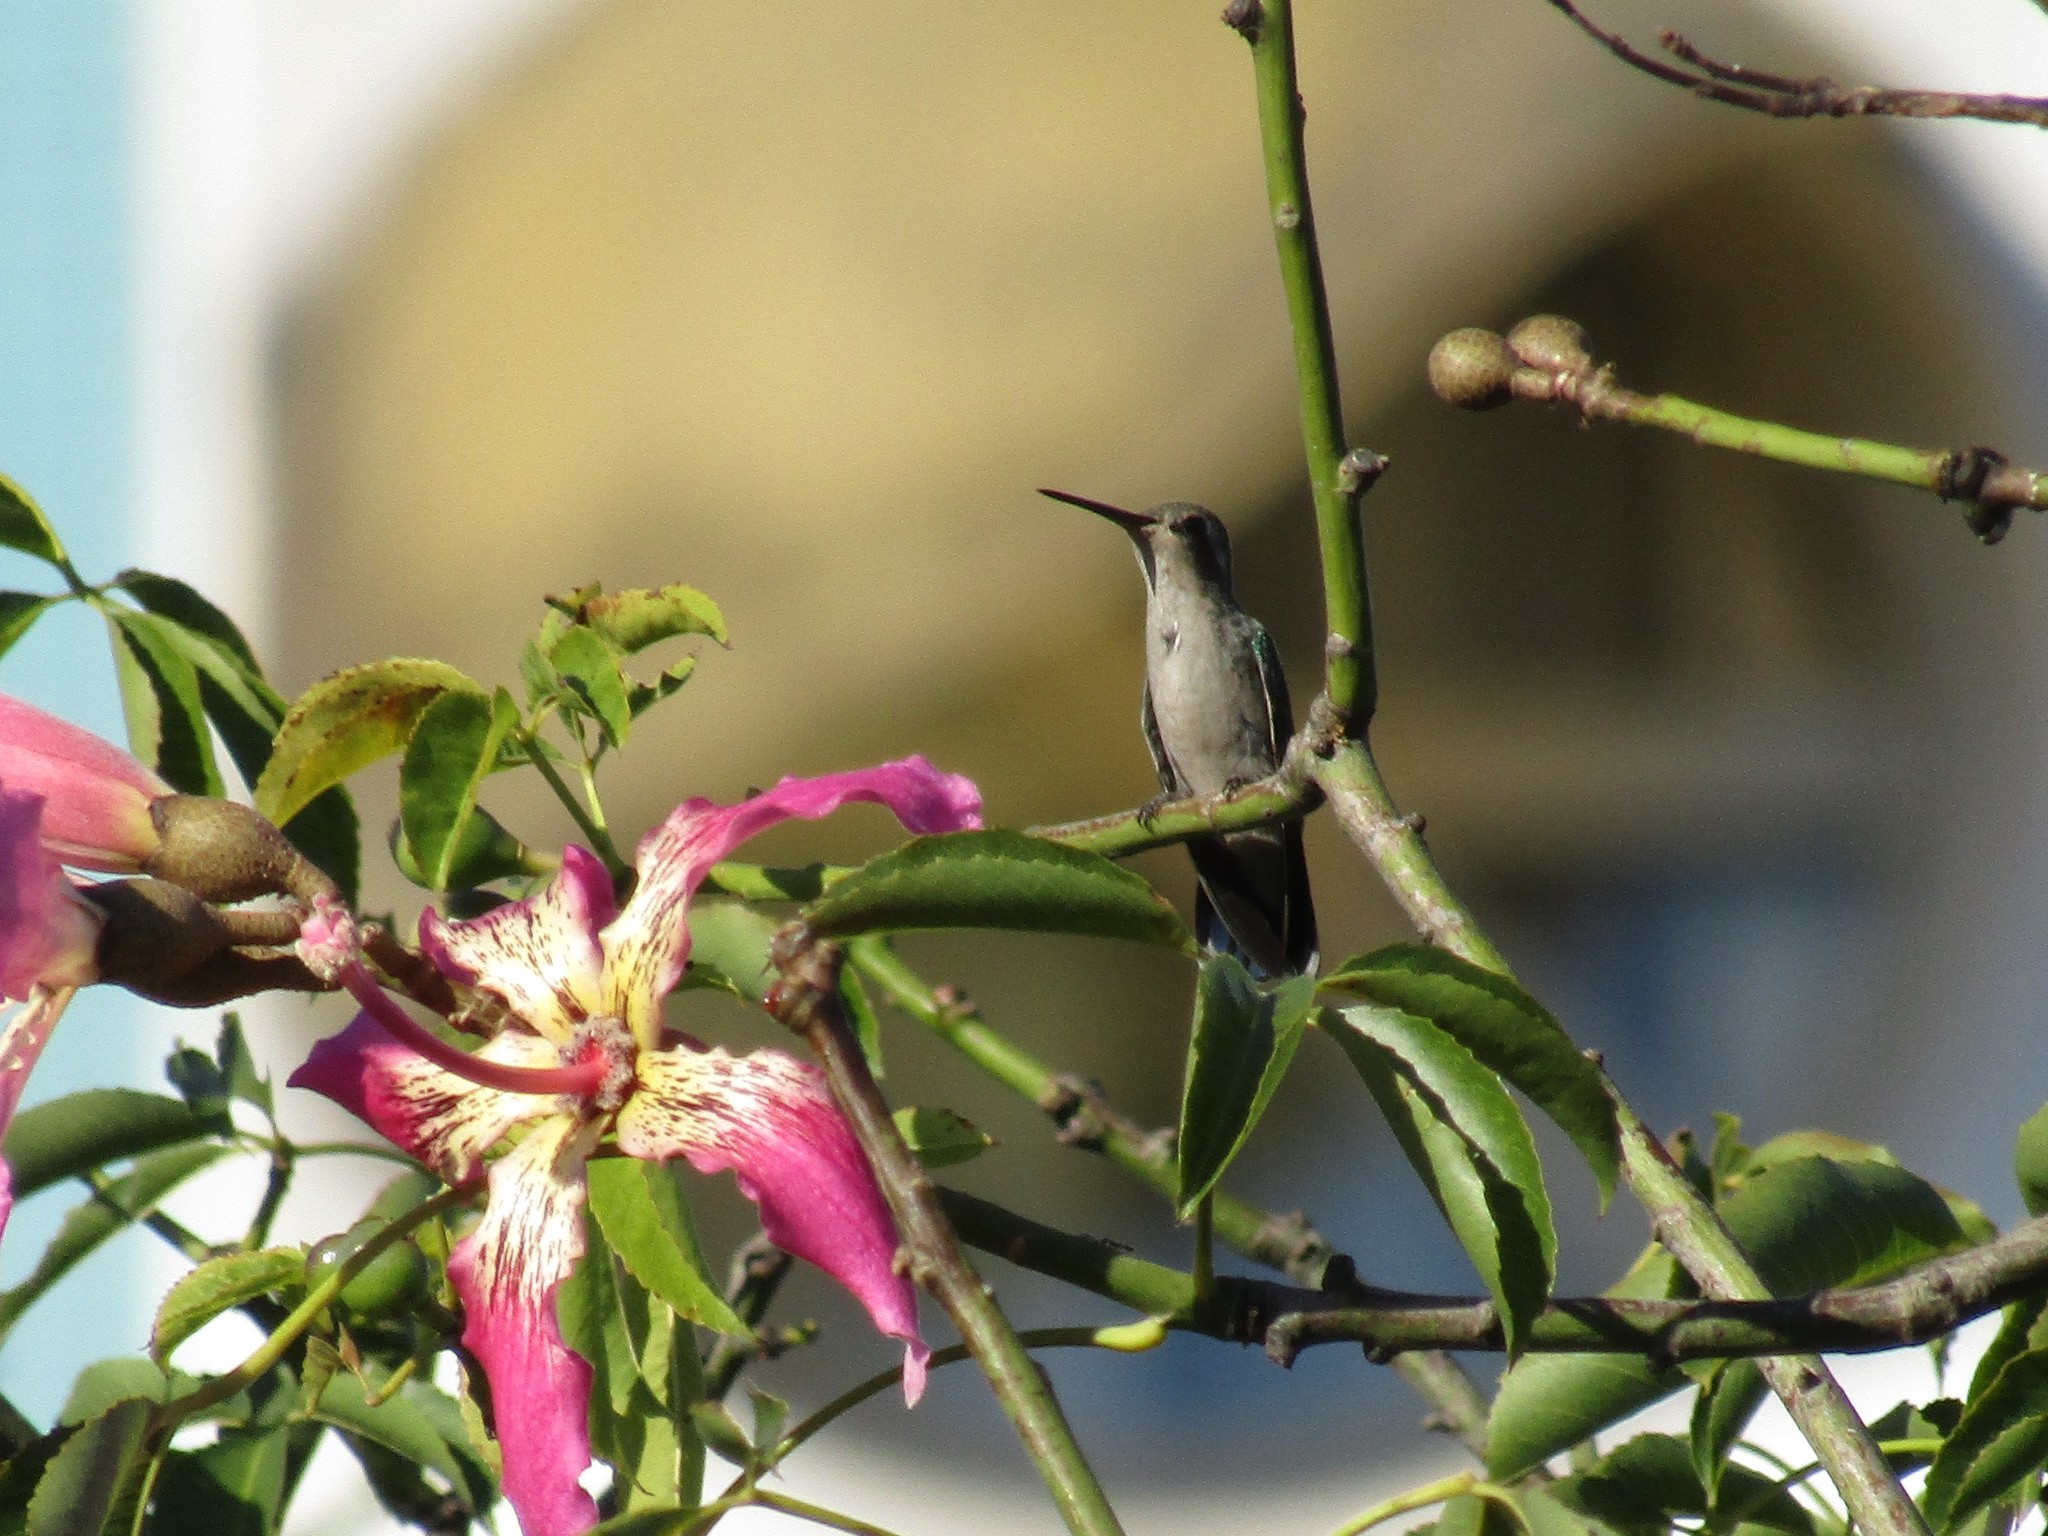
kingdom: Animalia
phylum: Chordata
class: Aves
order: Apodiformes
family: Trochilidae
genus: Chlorostilbon
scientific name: Chlorostilbon lucidus
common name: Glittering-bellied emerald
